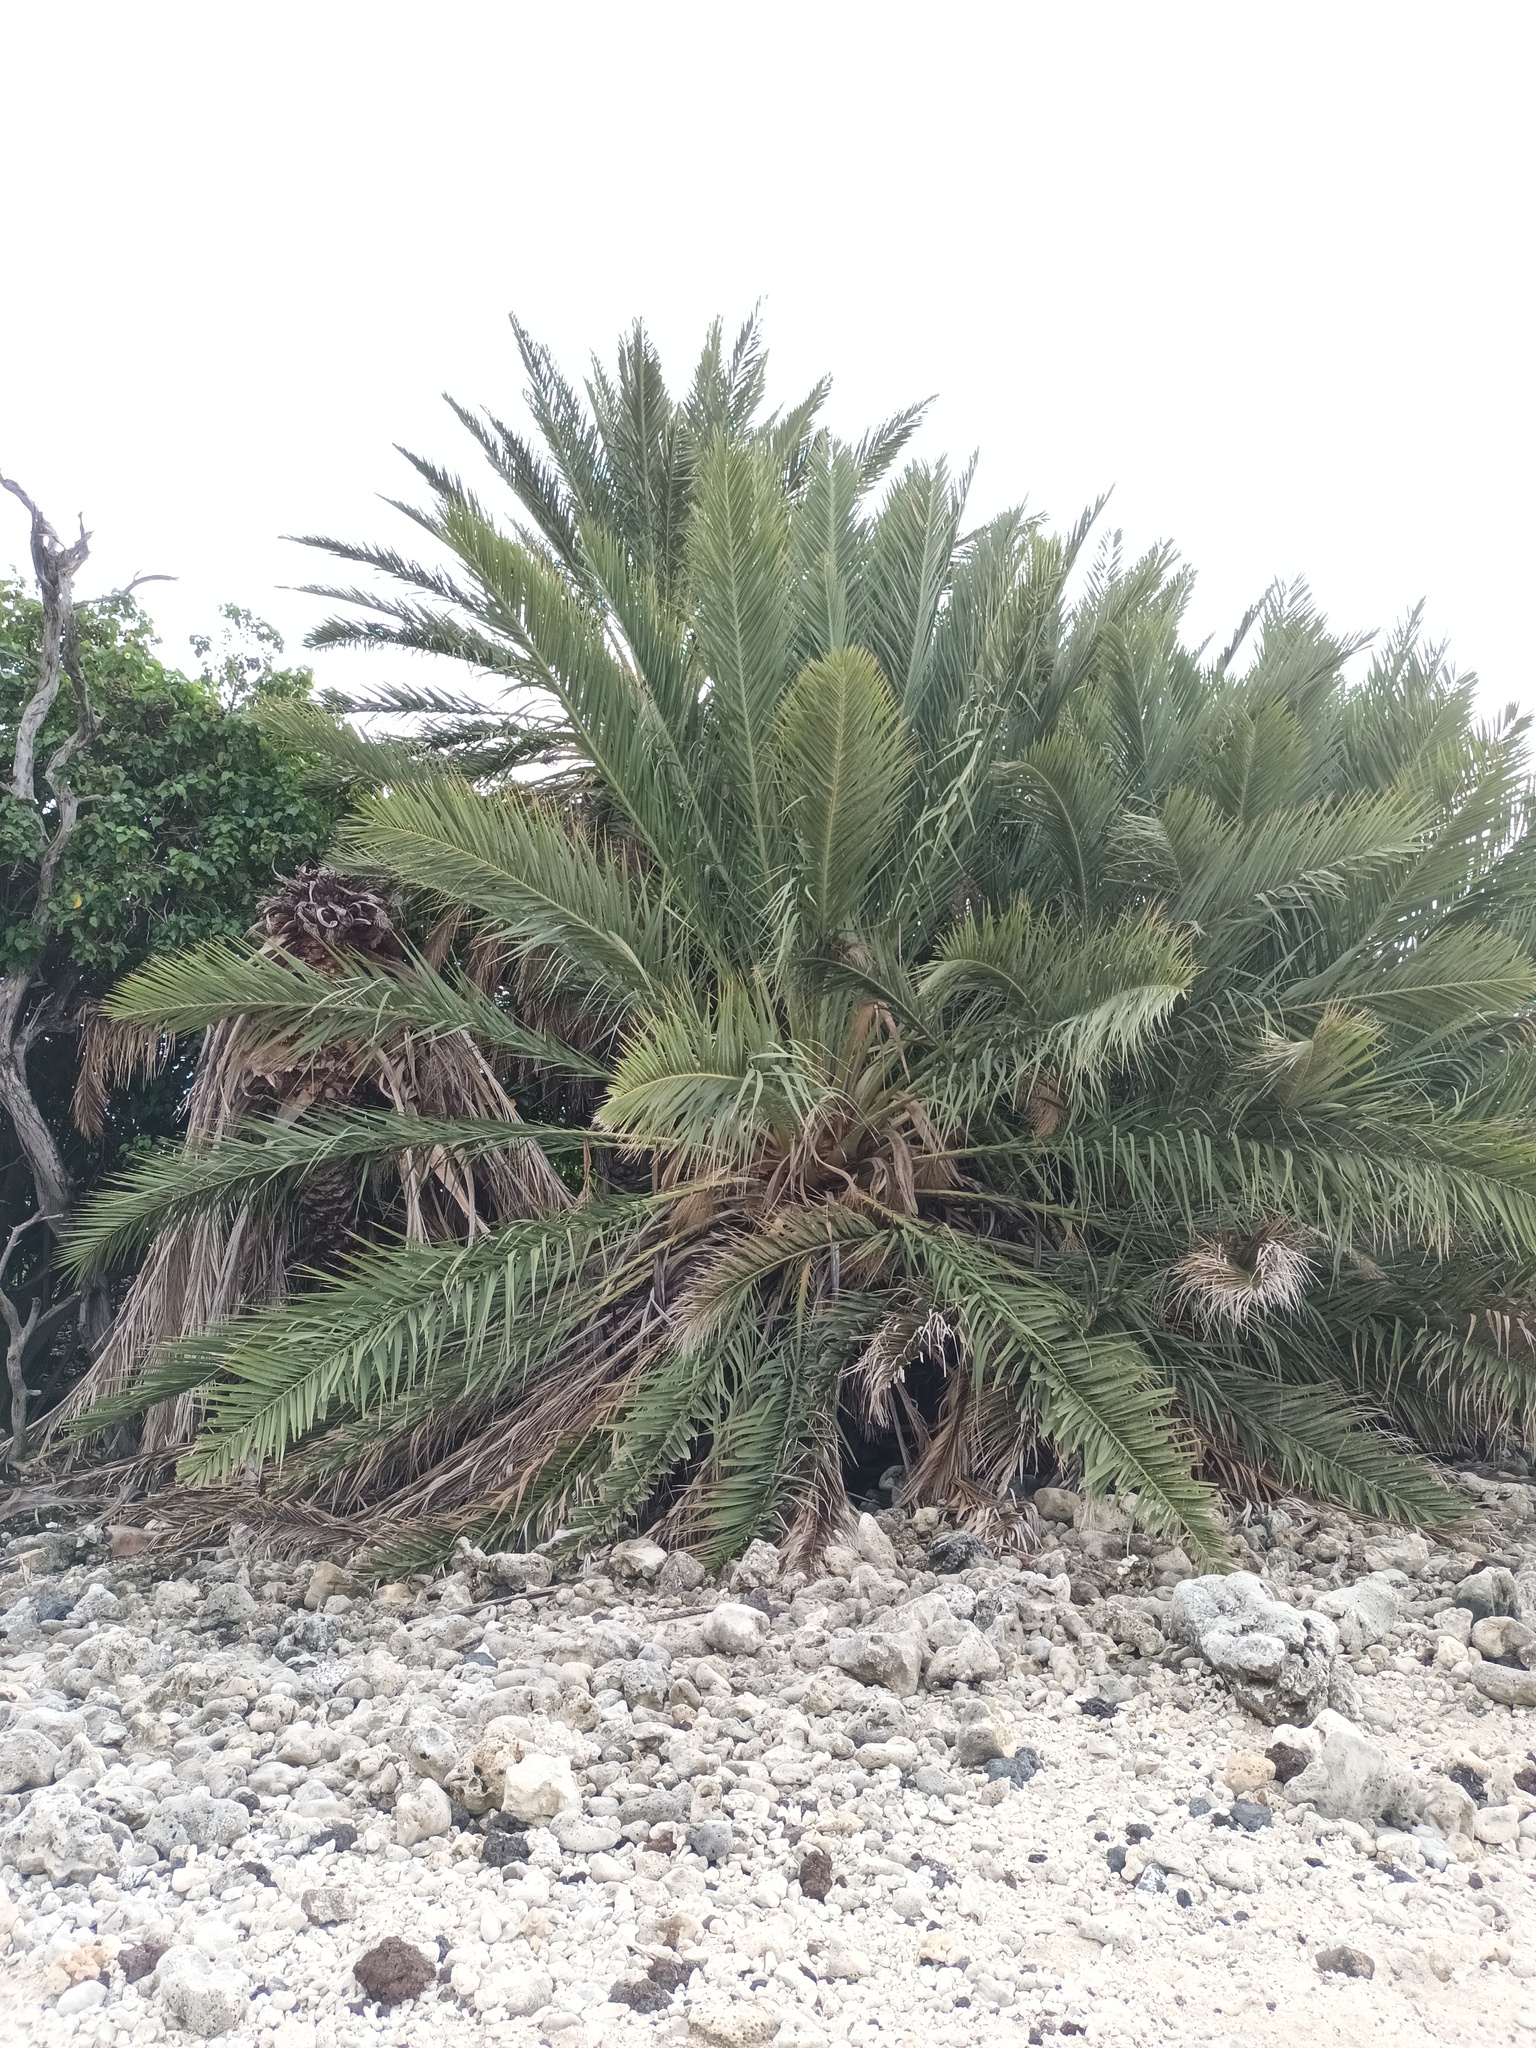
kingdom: Plantae
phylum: Tracheophyta
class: Liliopsida
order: Arecales
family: Arecaceae
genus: Phoenix
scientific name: Phoenix dactylifera
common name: Date palm
